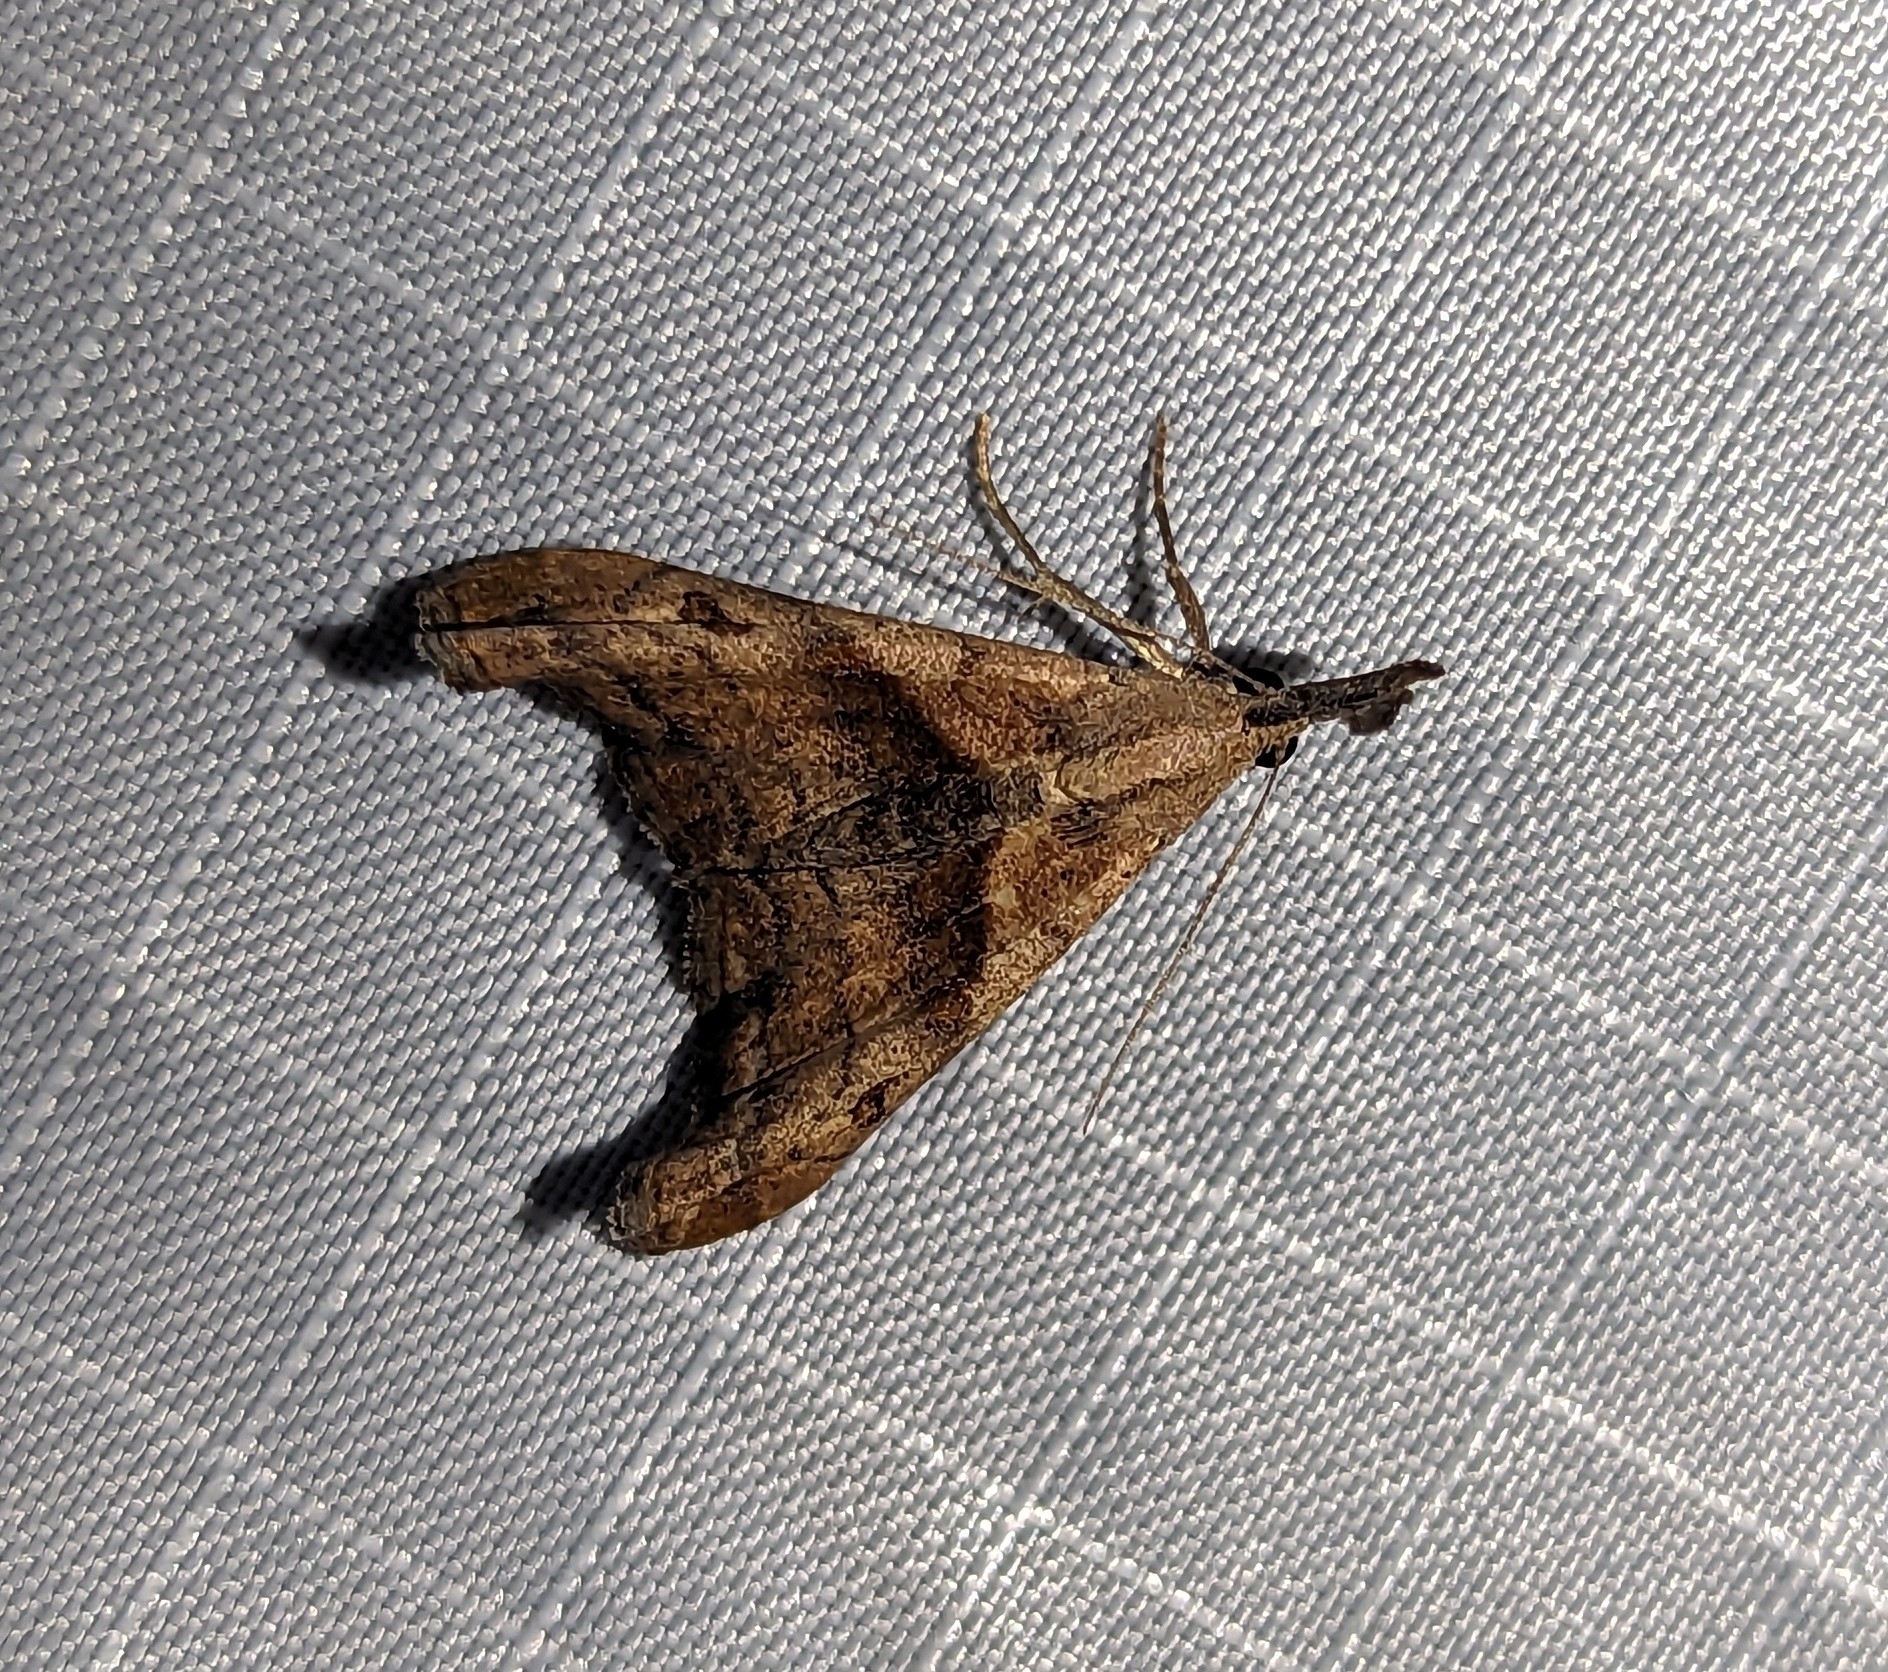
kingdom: Animalia
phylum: Arthropoda
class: Insecta
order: Lepidoptera
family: Erebidae
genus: Palthis
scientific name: Palthis angulalis
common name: Dark-spotted palthis moth
